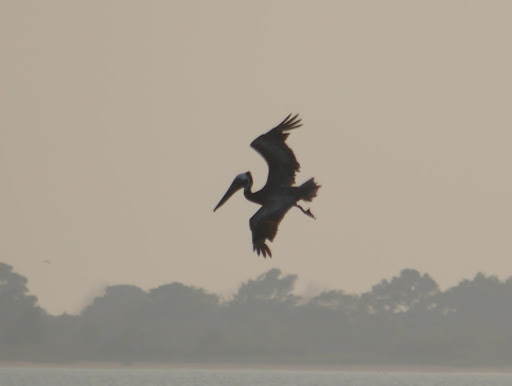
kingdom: Animalia
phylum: Chordata
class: Aves
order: Pelecaniformes
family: Pelecanidae
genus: Pelecanus
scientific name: Pelecanus occidentalis
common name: Brown pelican
